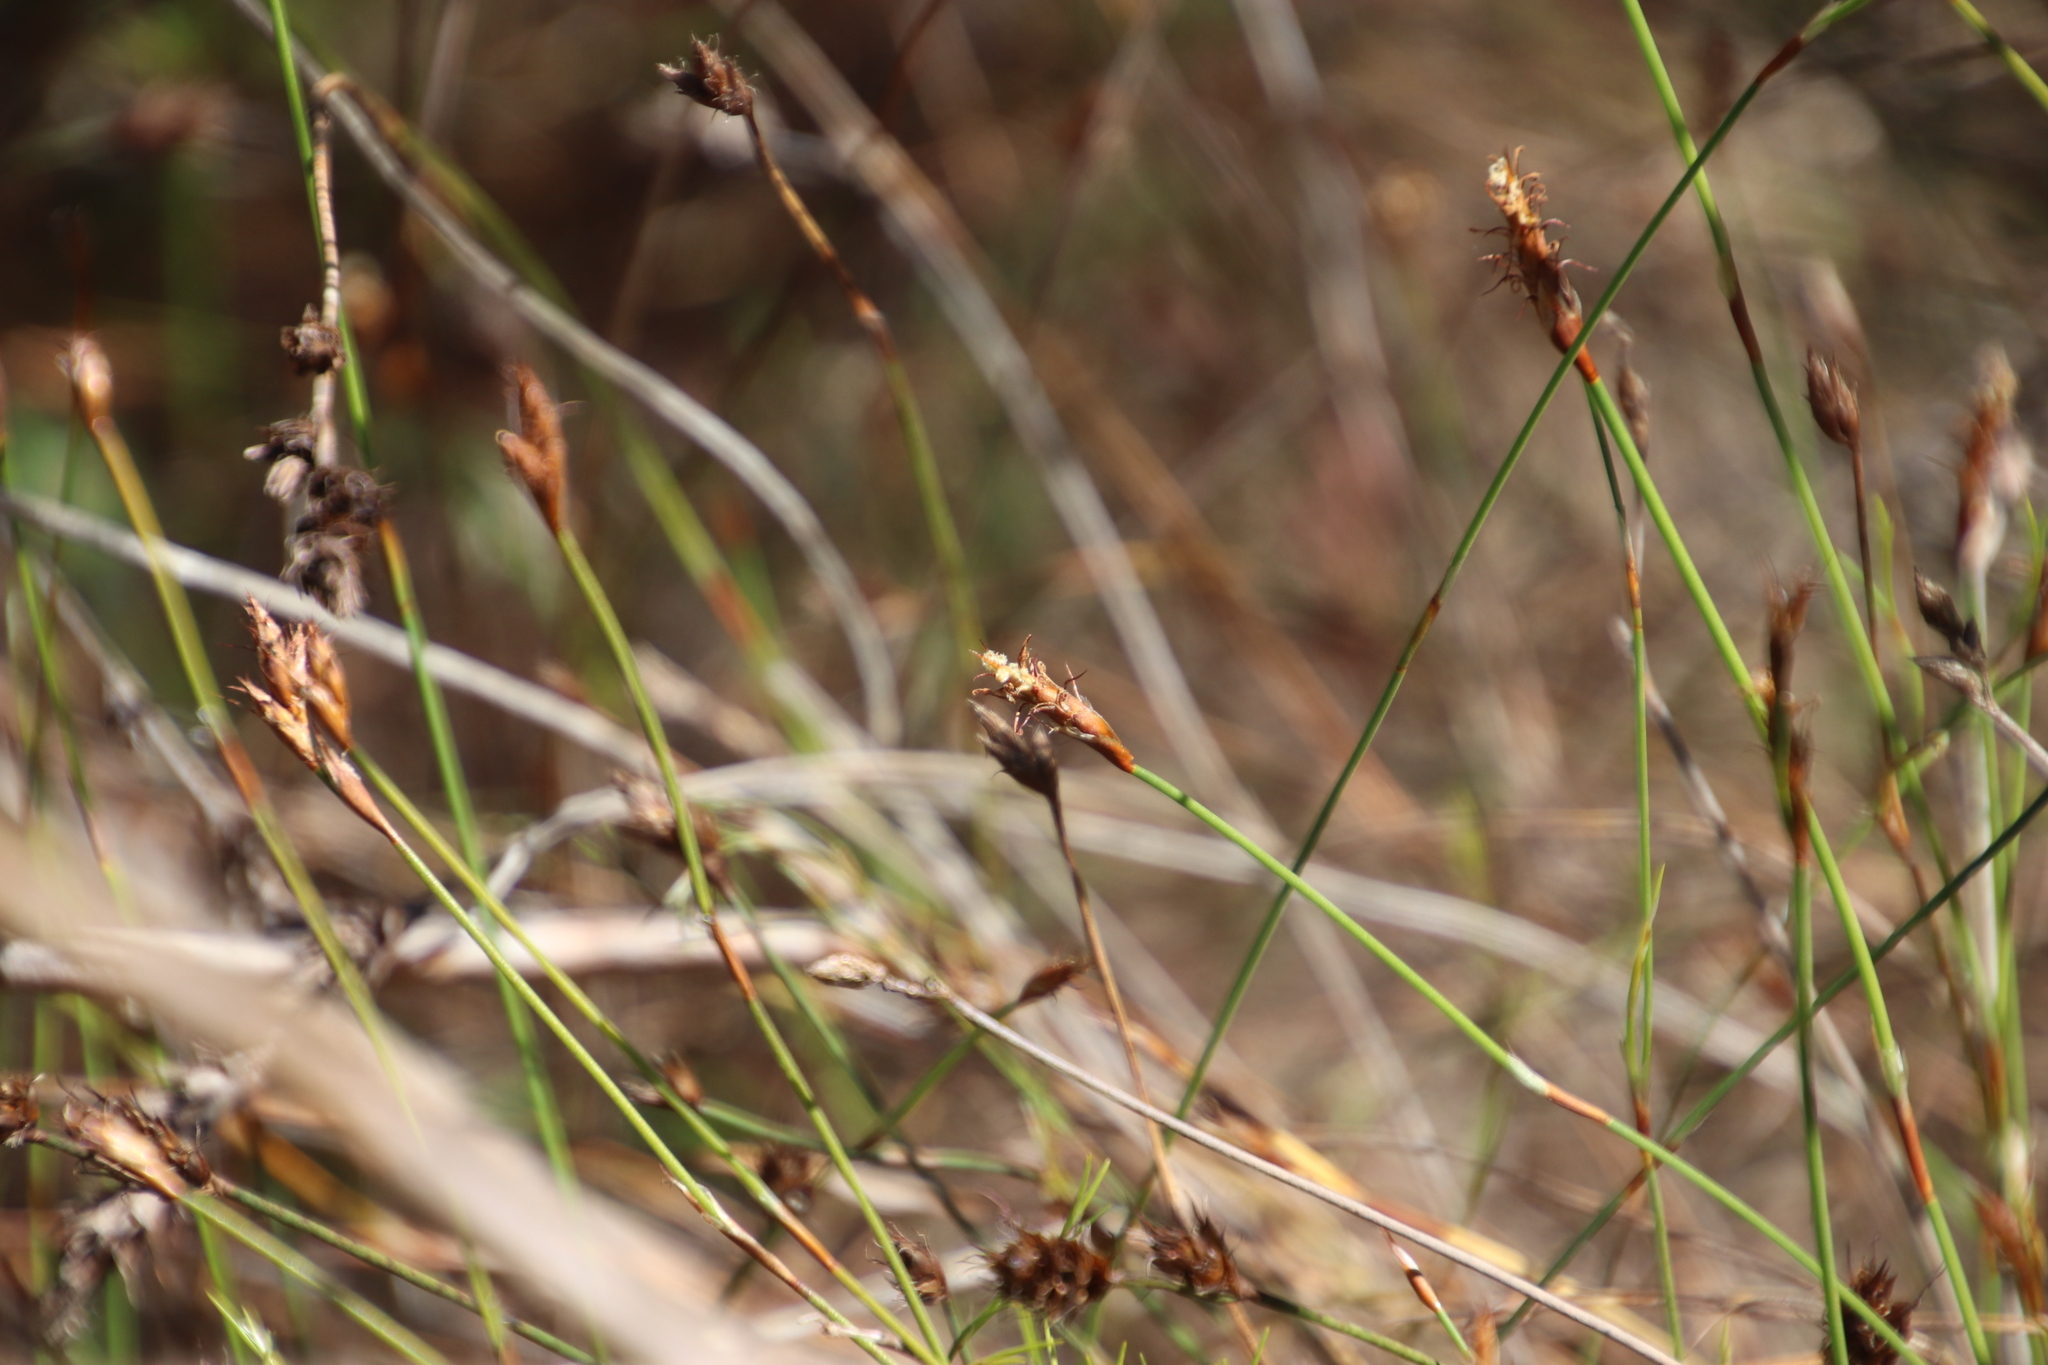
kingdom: Plantae
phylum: Tracheophyta
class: Liliopsida
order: Poales
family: Restionaceae
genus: Restio
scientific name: Restio capensis
